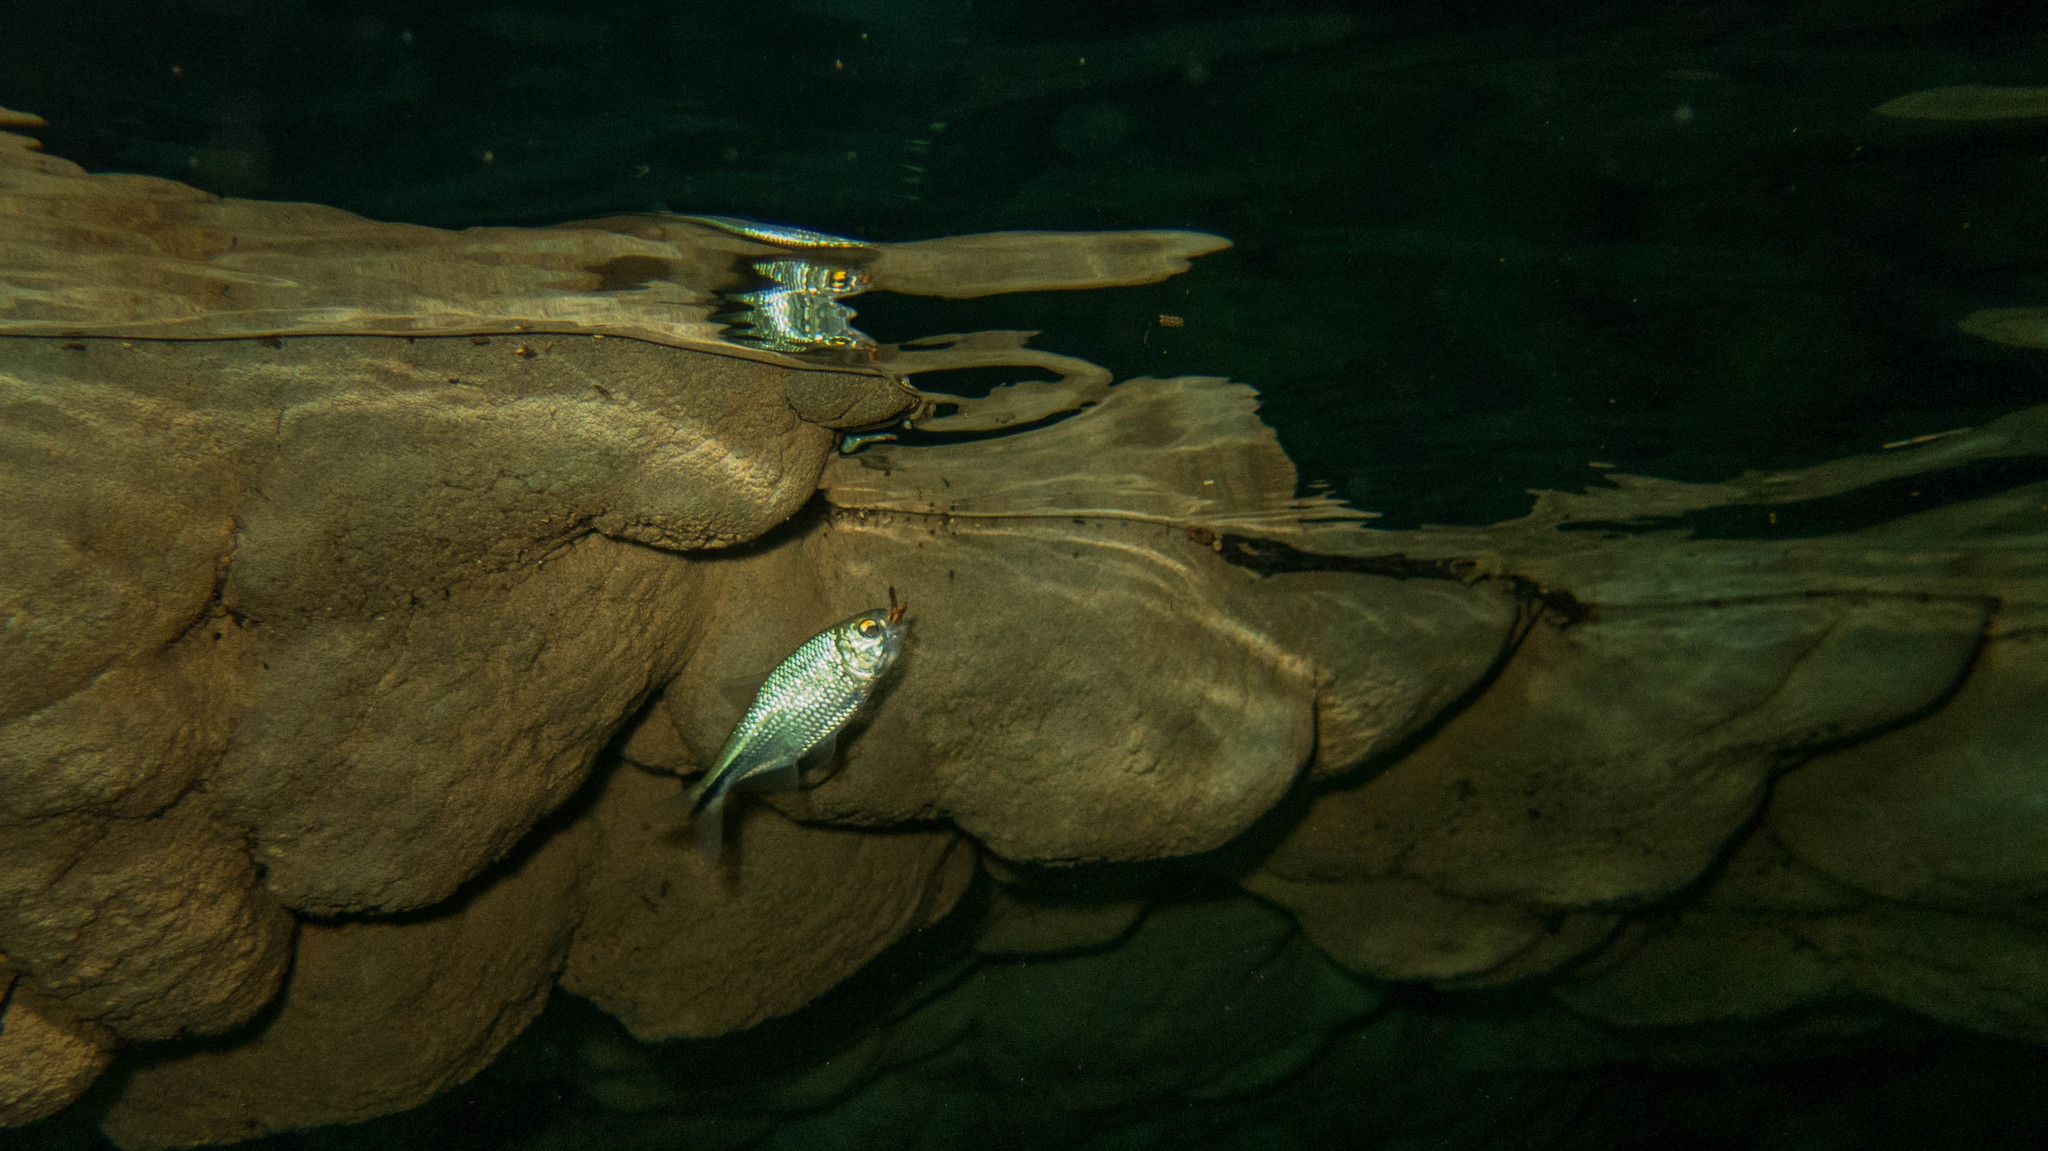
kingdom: Animalia
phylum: Chordata
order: Characiformes
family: Characidae
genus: Astyanax
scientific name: Astyanax lineatus
